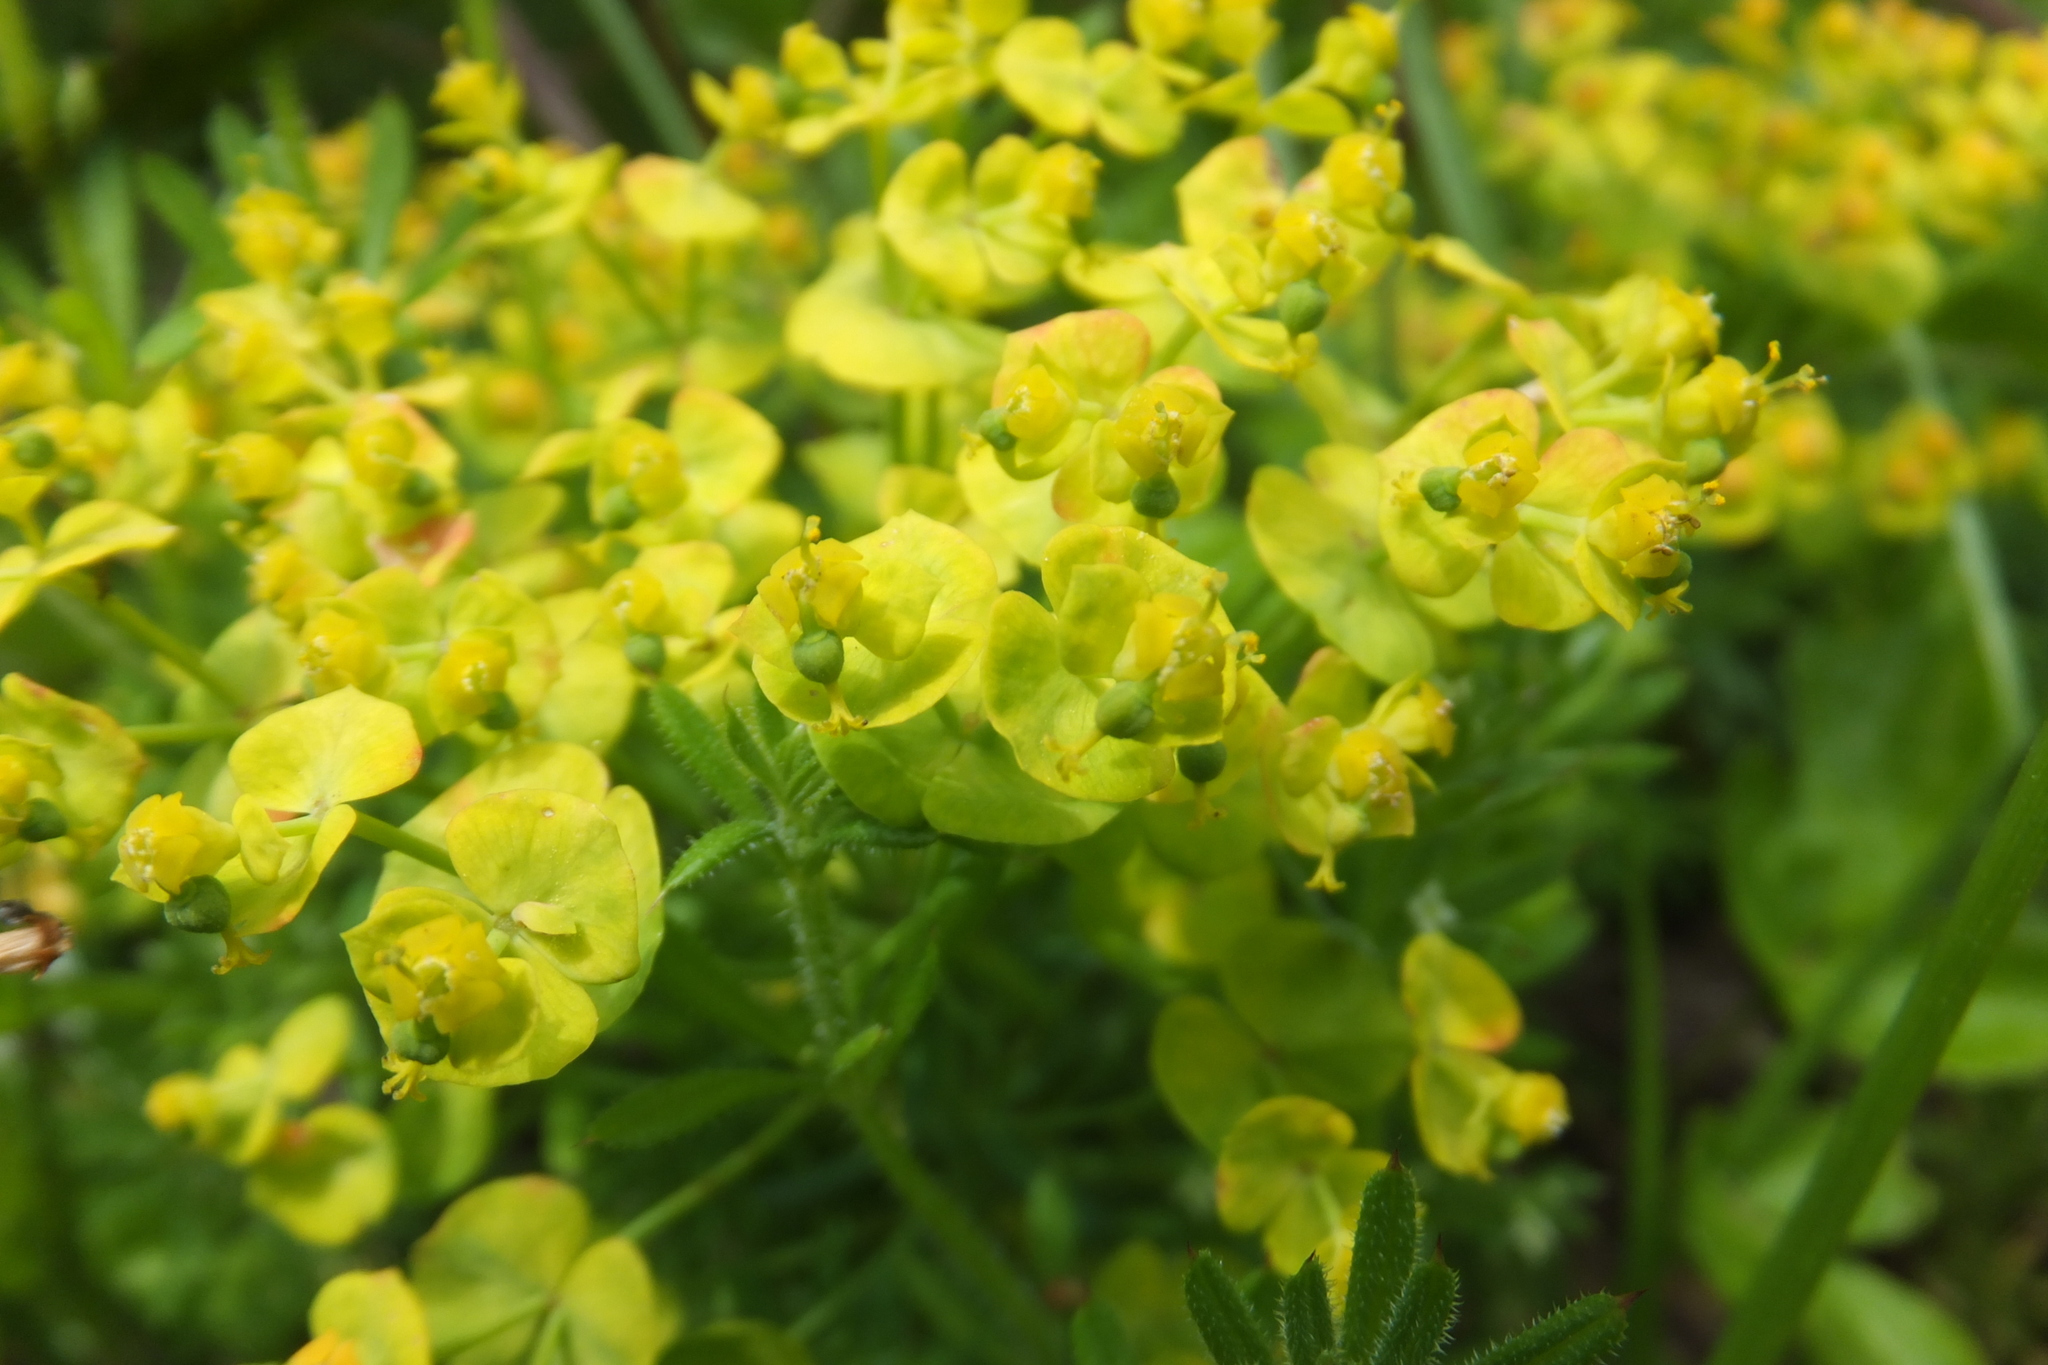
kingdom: Plantae
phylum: Tracheophyta
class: Magnoliopsida
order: Malpighiales
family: Euphorbiaceae
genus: Euphorbia
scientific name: Euphorbia cyparissias
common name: Cypress spurge
